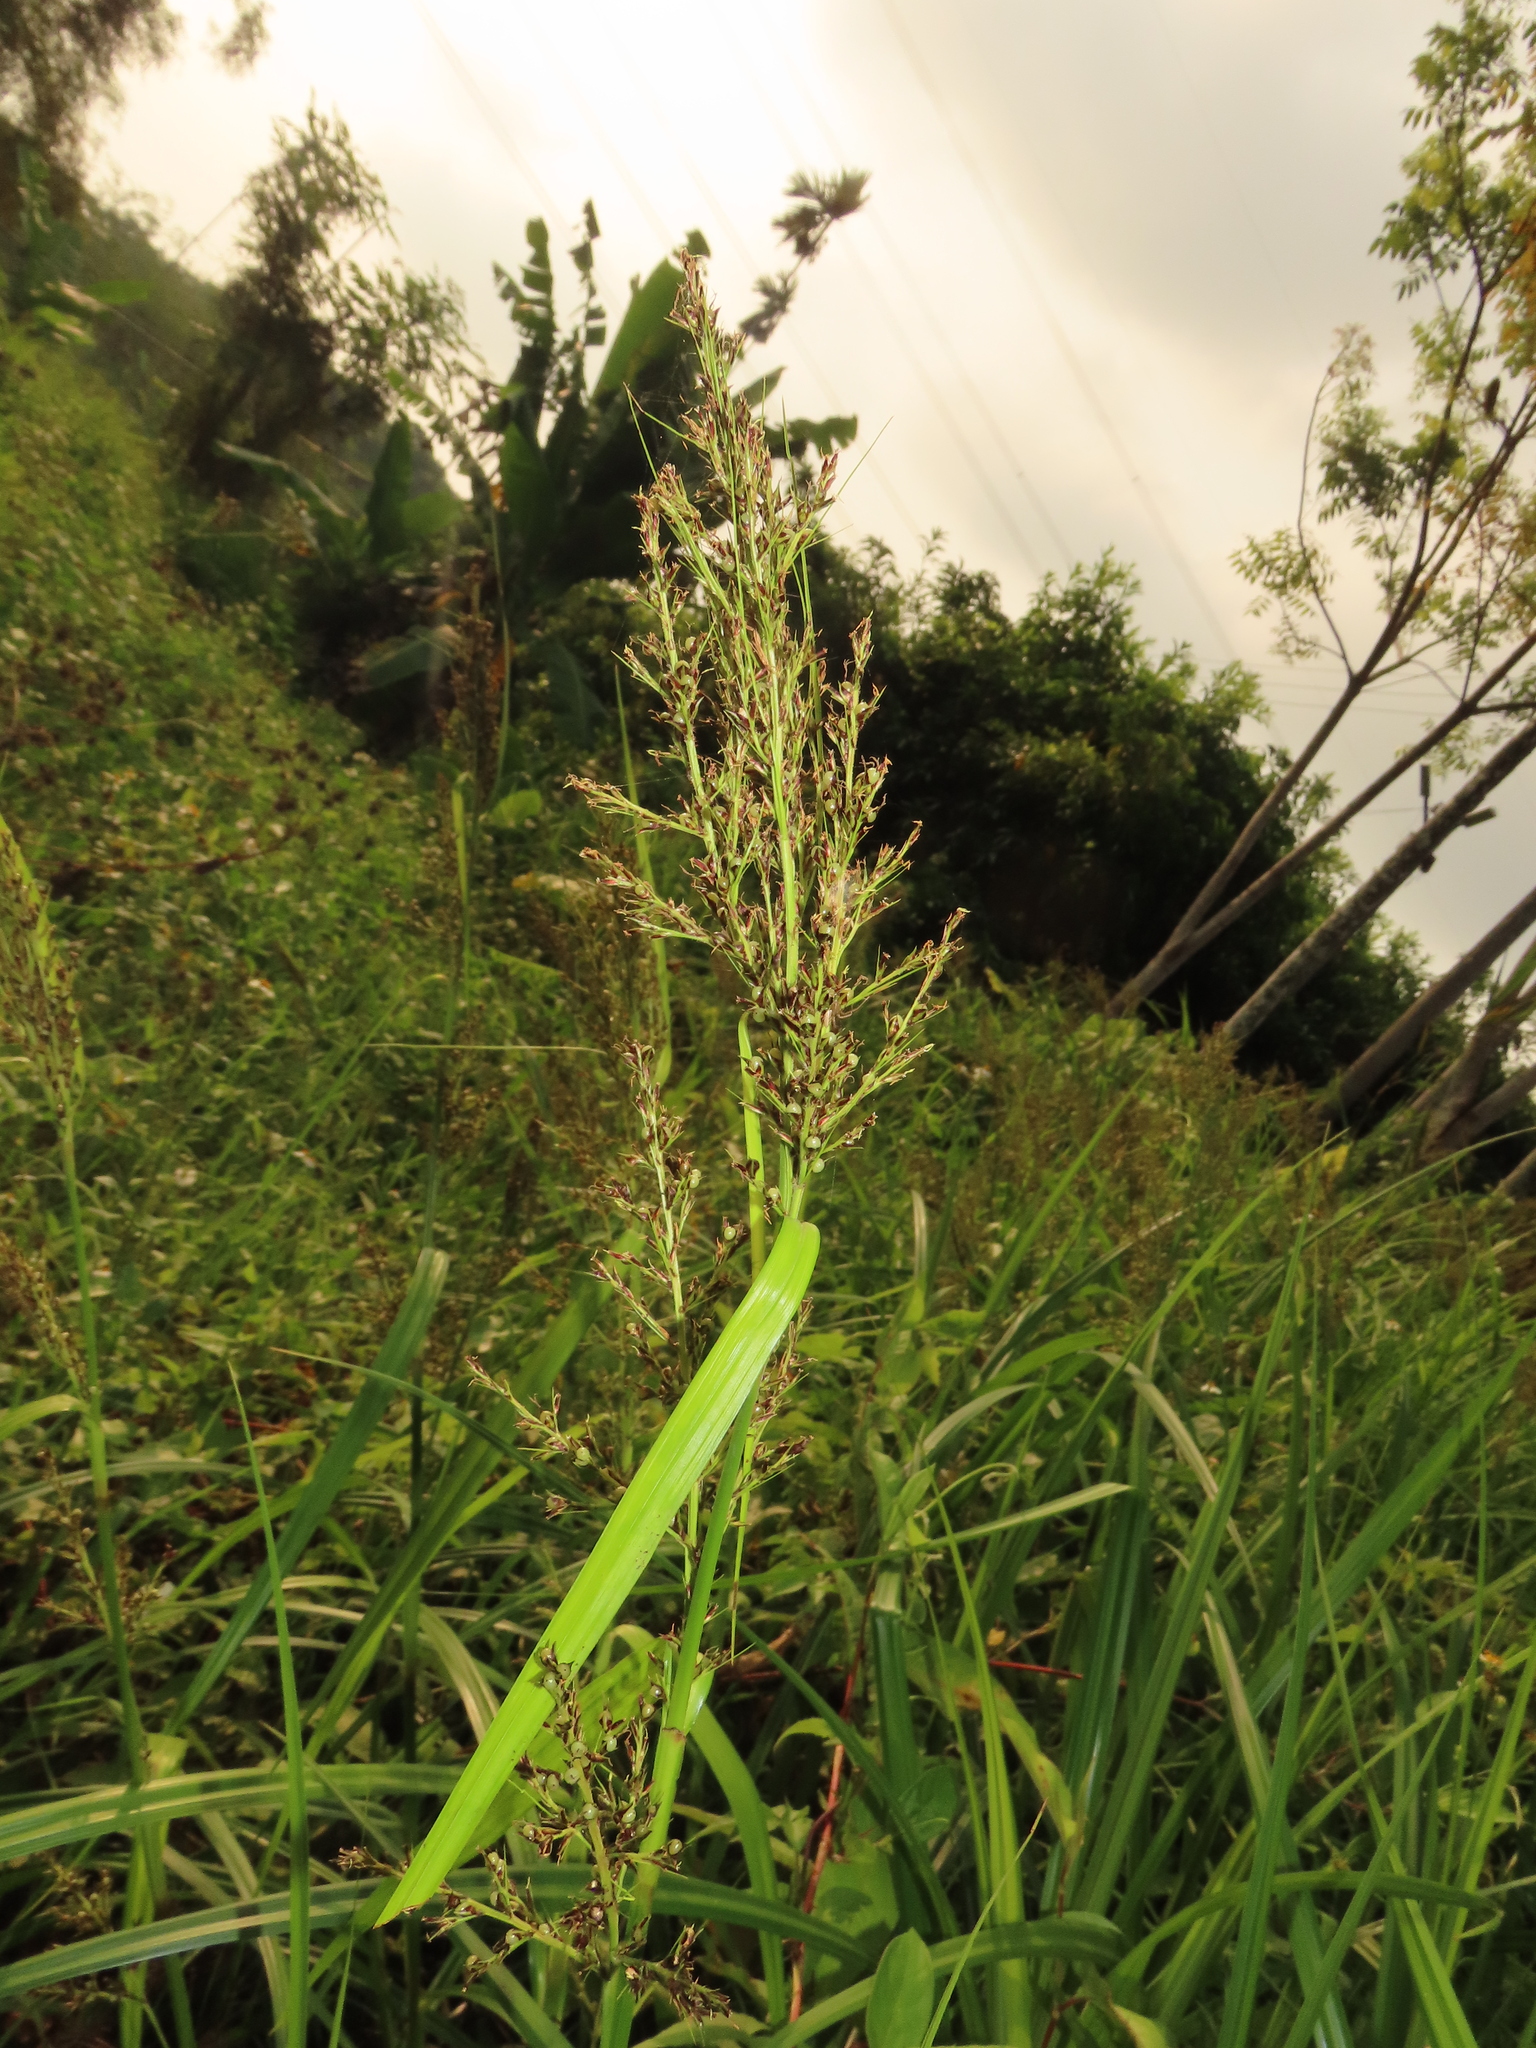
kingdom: Plantae
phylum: Tracheophyta
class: Liliopsida
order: Poales
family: Cyperaceae
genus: Scleria
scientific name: Scleria terrestris
